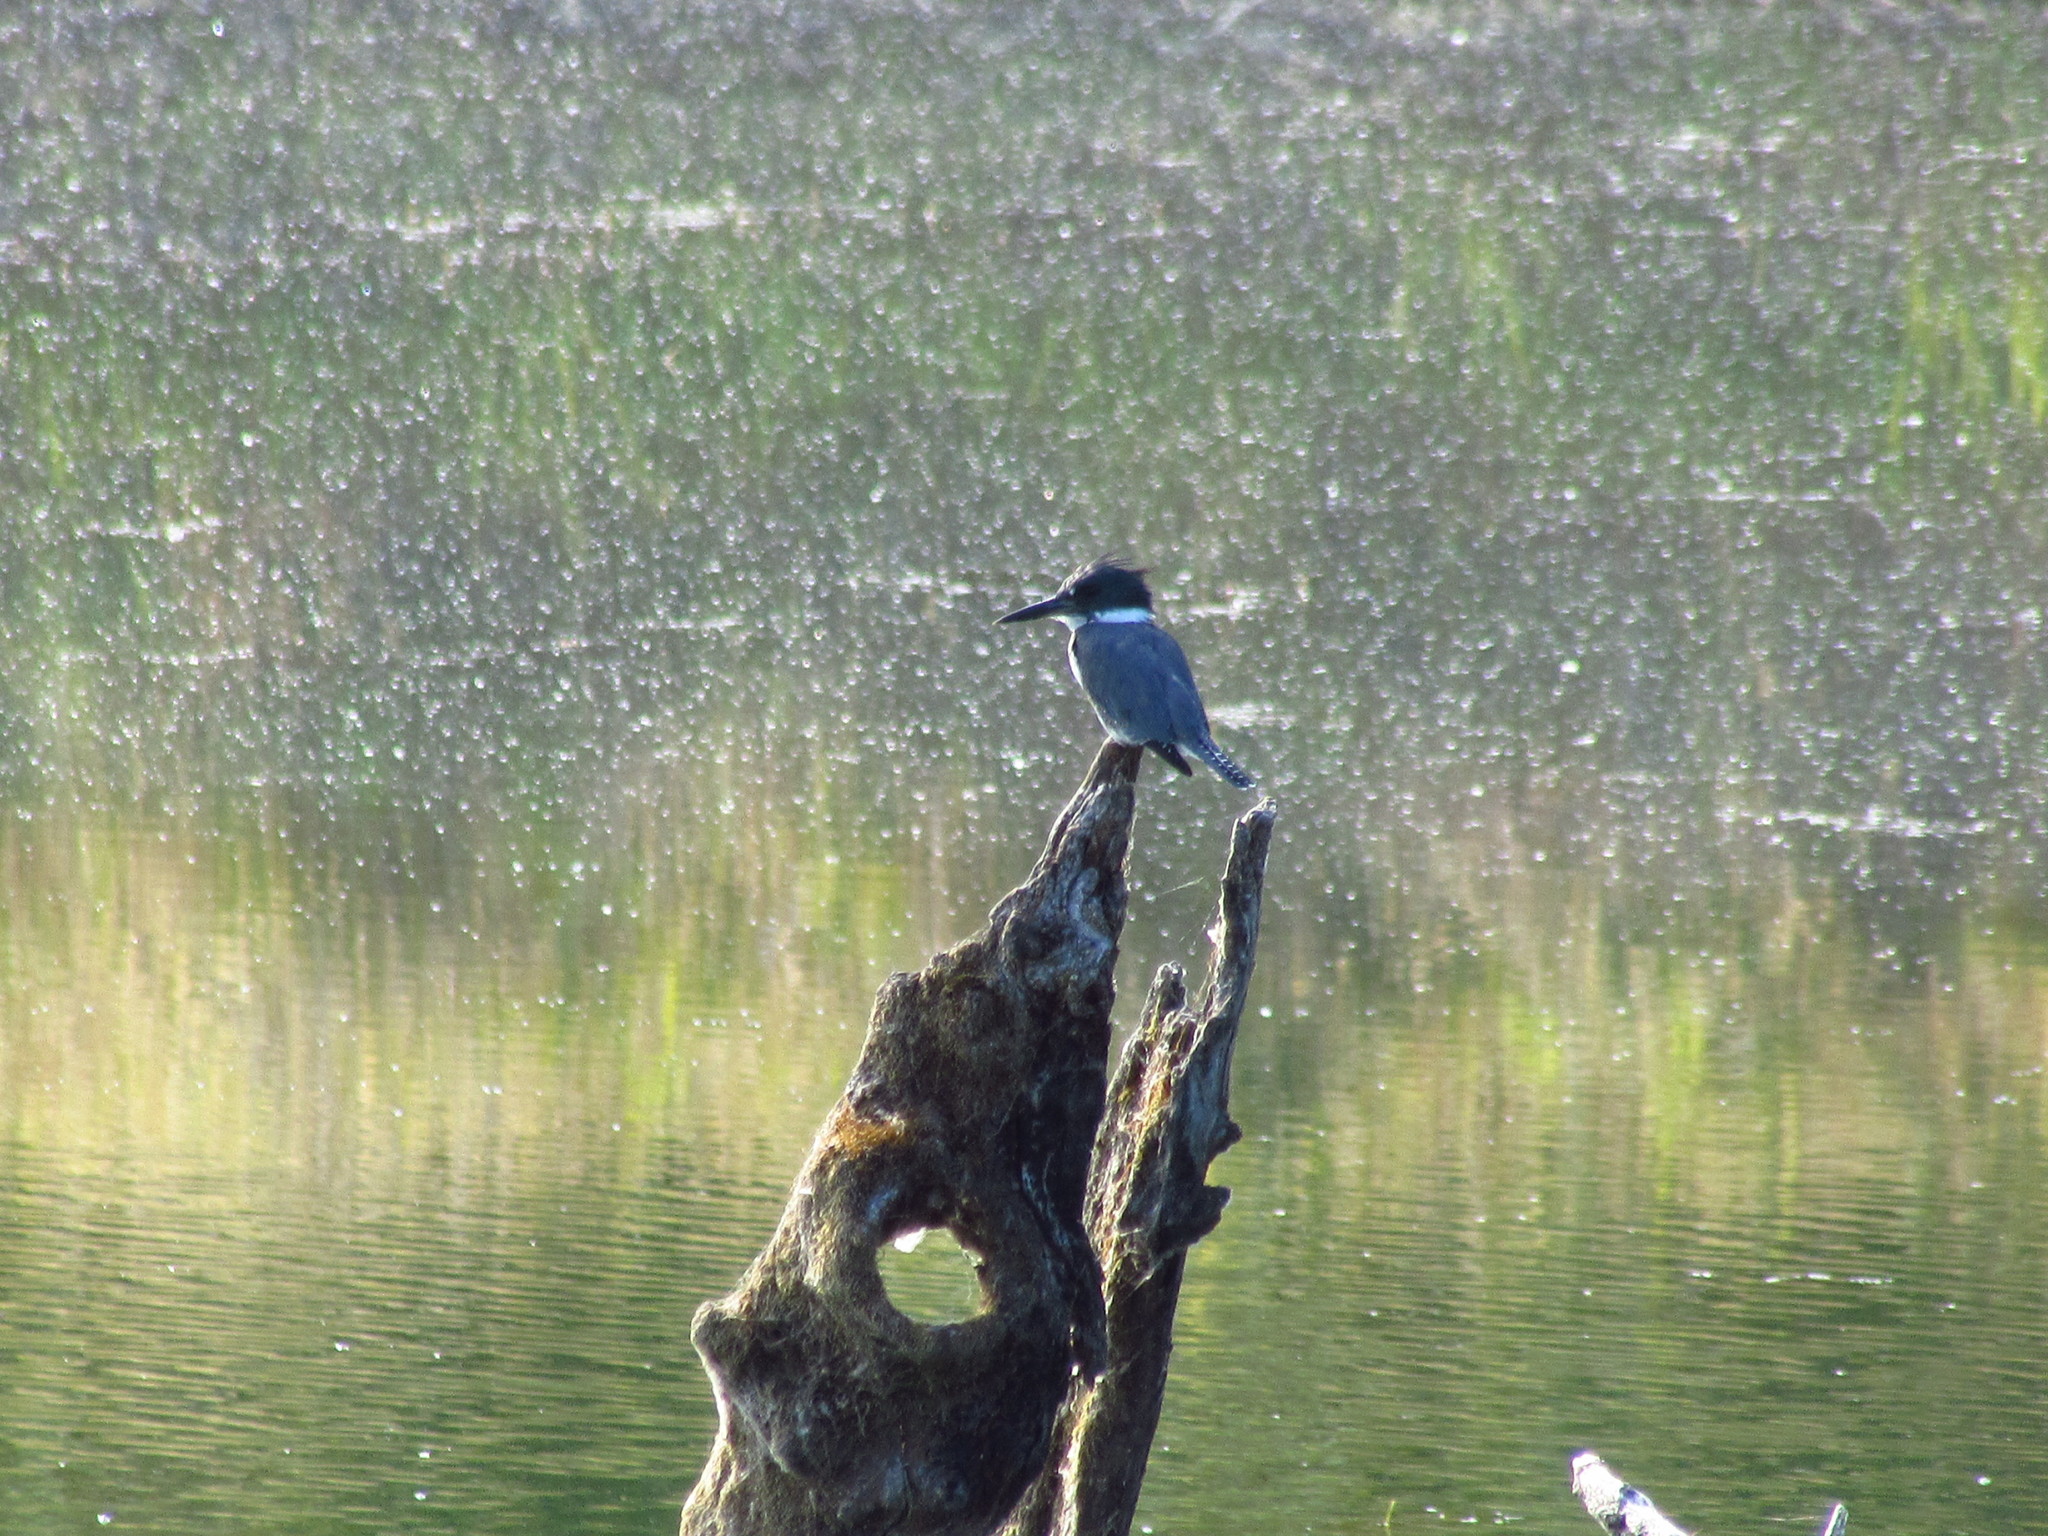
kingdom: Animalia
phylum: Chordata
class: Aves
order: Coraciiformes
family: Alcedinidae
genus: Megaceryle
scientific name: Megaceryle alcyon
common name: Belted kingfisher
